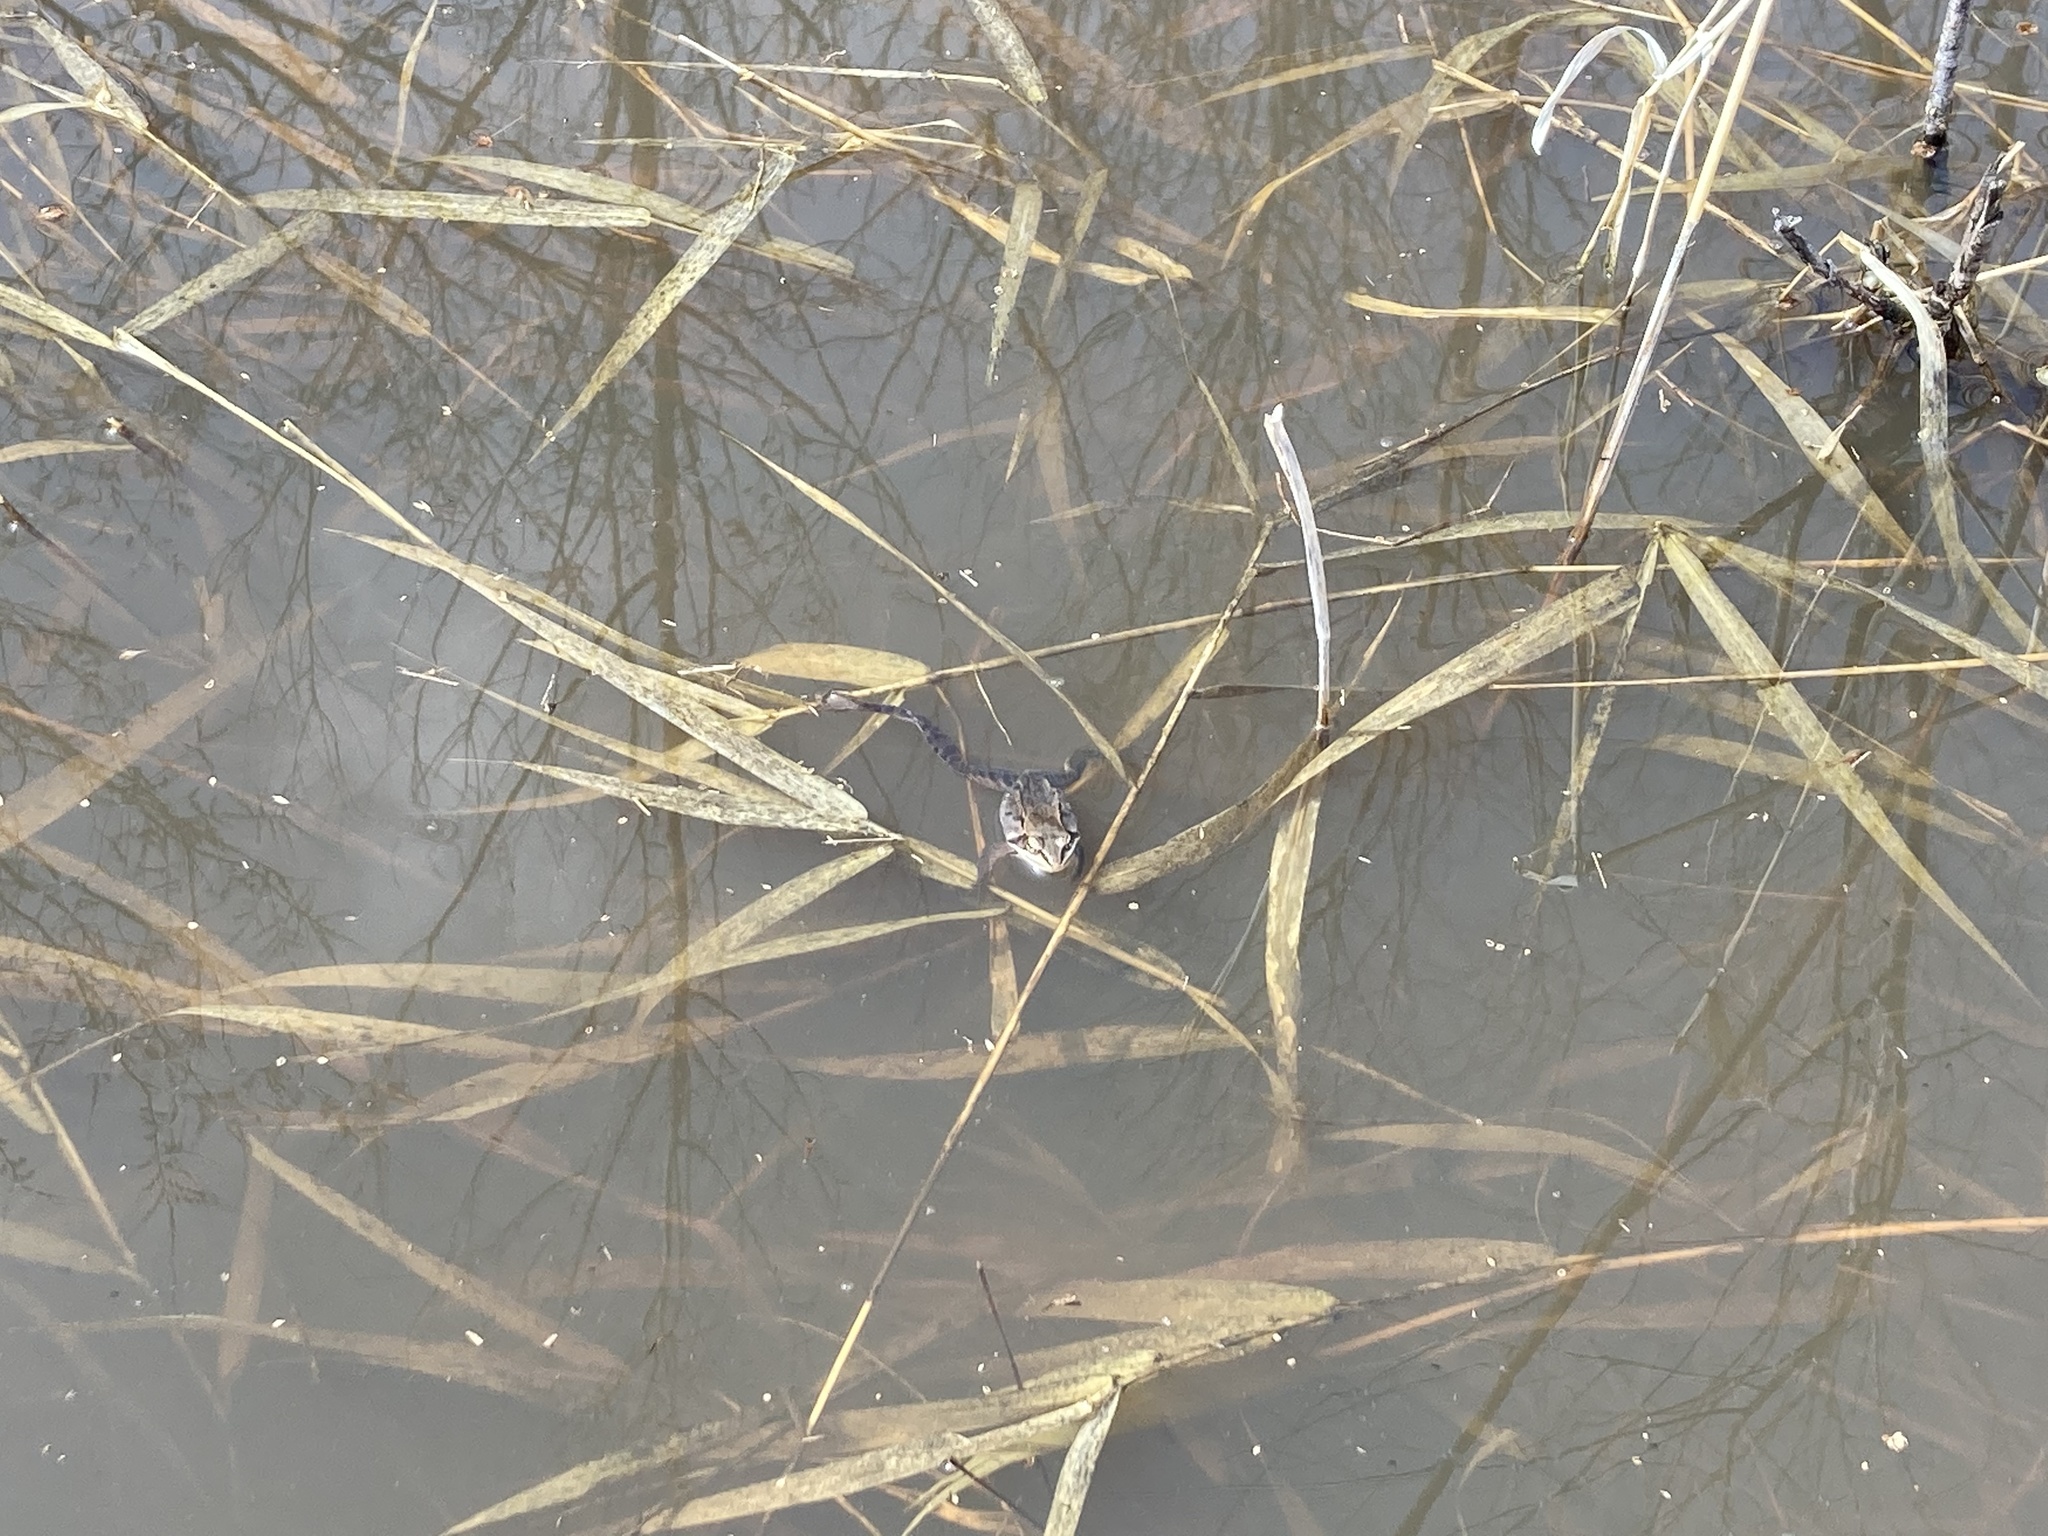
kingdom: Animalia
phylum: Chordata
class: Amphibia
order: Anura
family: Ranidae
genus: Lithobates
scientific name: Lithobates sylvaticus
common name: Wood frog
